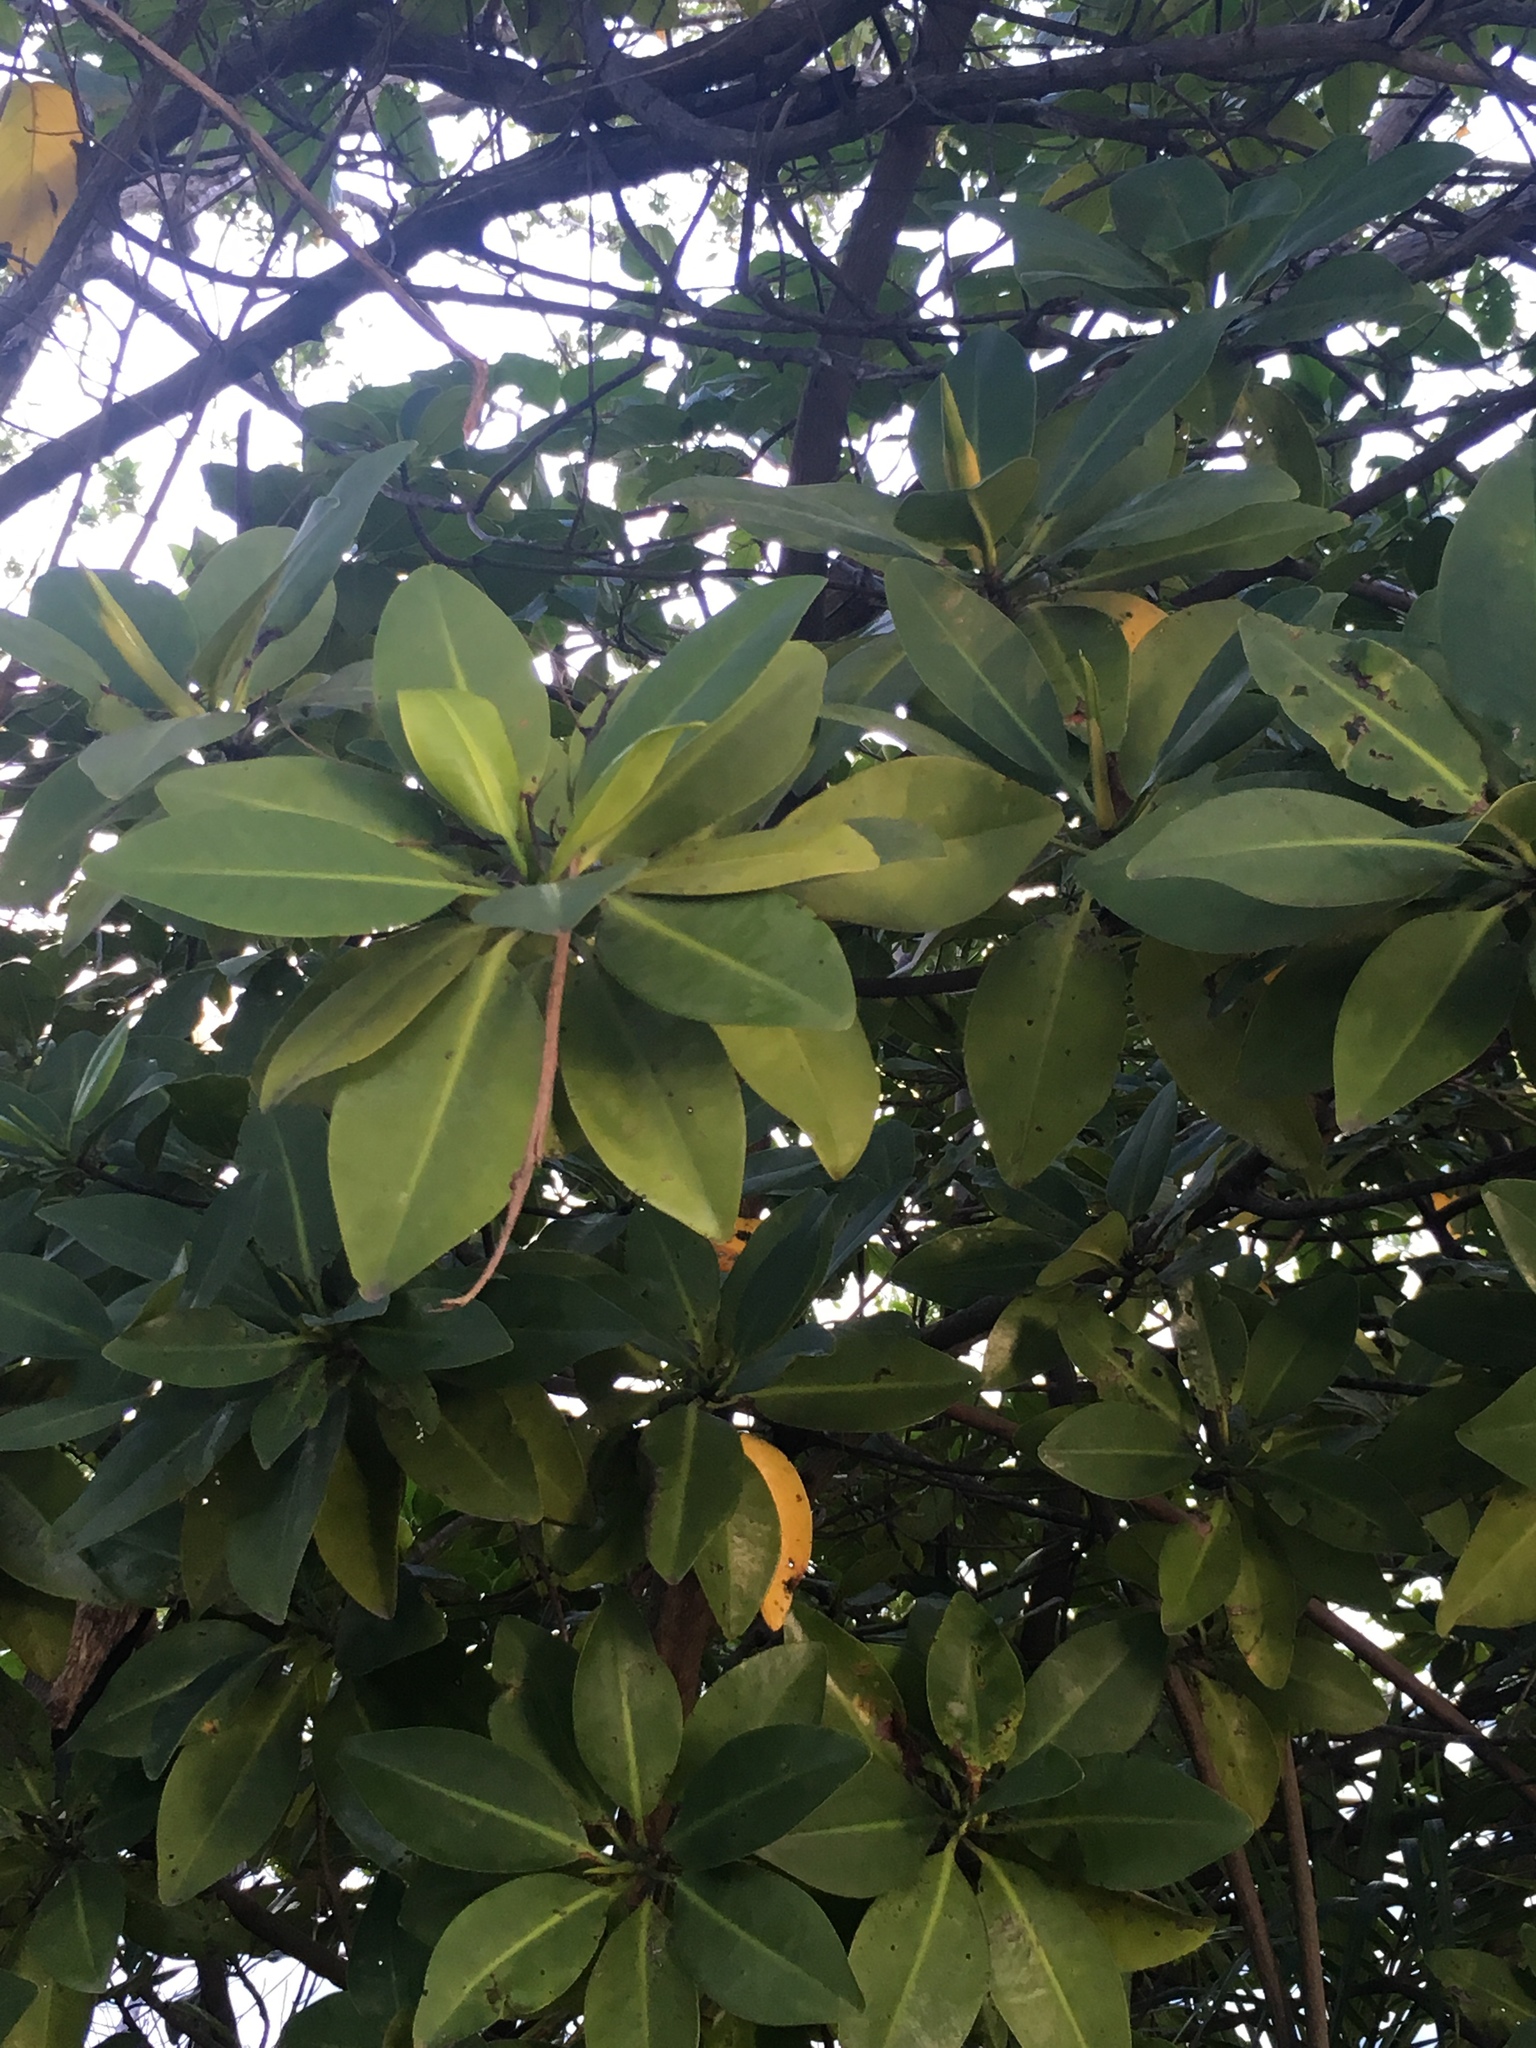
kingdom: Plantae
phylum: Tracheophyta
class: Magnoliopsida
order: Malpighiales
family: Rhizophoraceae
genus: Rhizophora
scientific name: Rhizophora mangle
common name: Red mangrove
